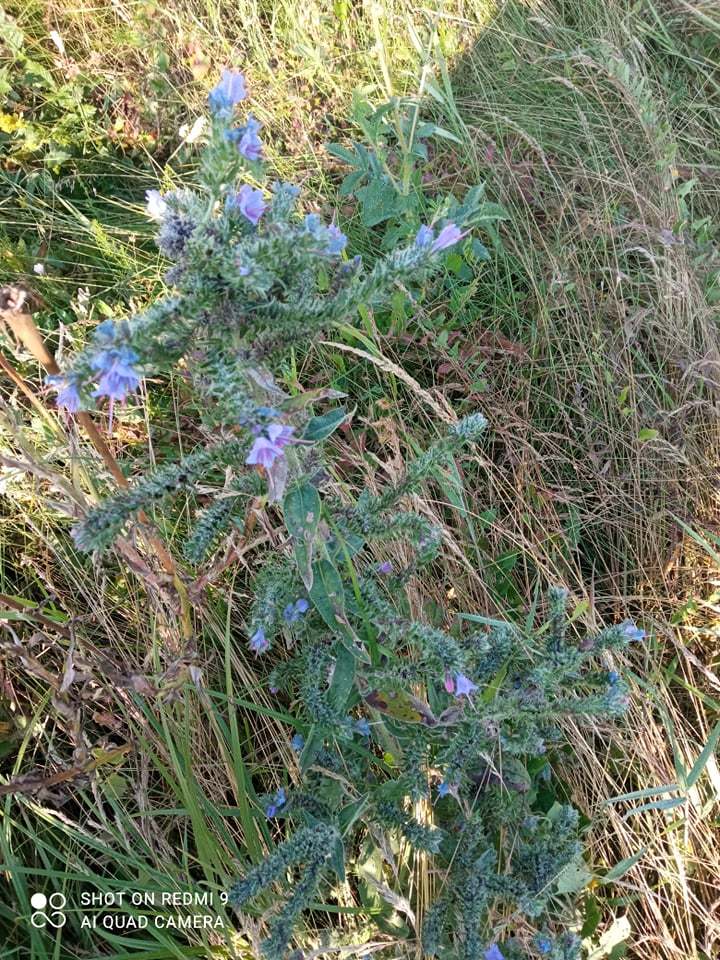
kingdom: Plantae
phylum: Tracheophyta
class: Magnoliopsida
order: Boraginales
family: Boraginaceae
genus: Echium
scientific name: Echium vulgare
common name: Common viper's bugloss
